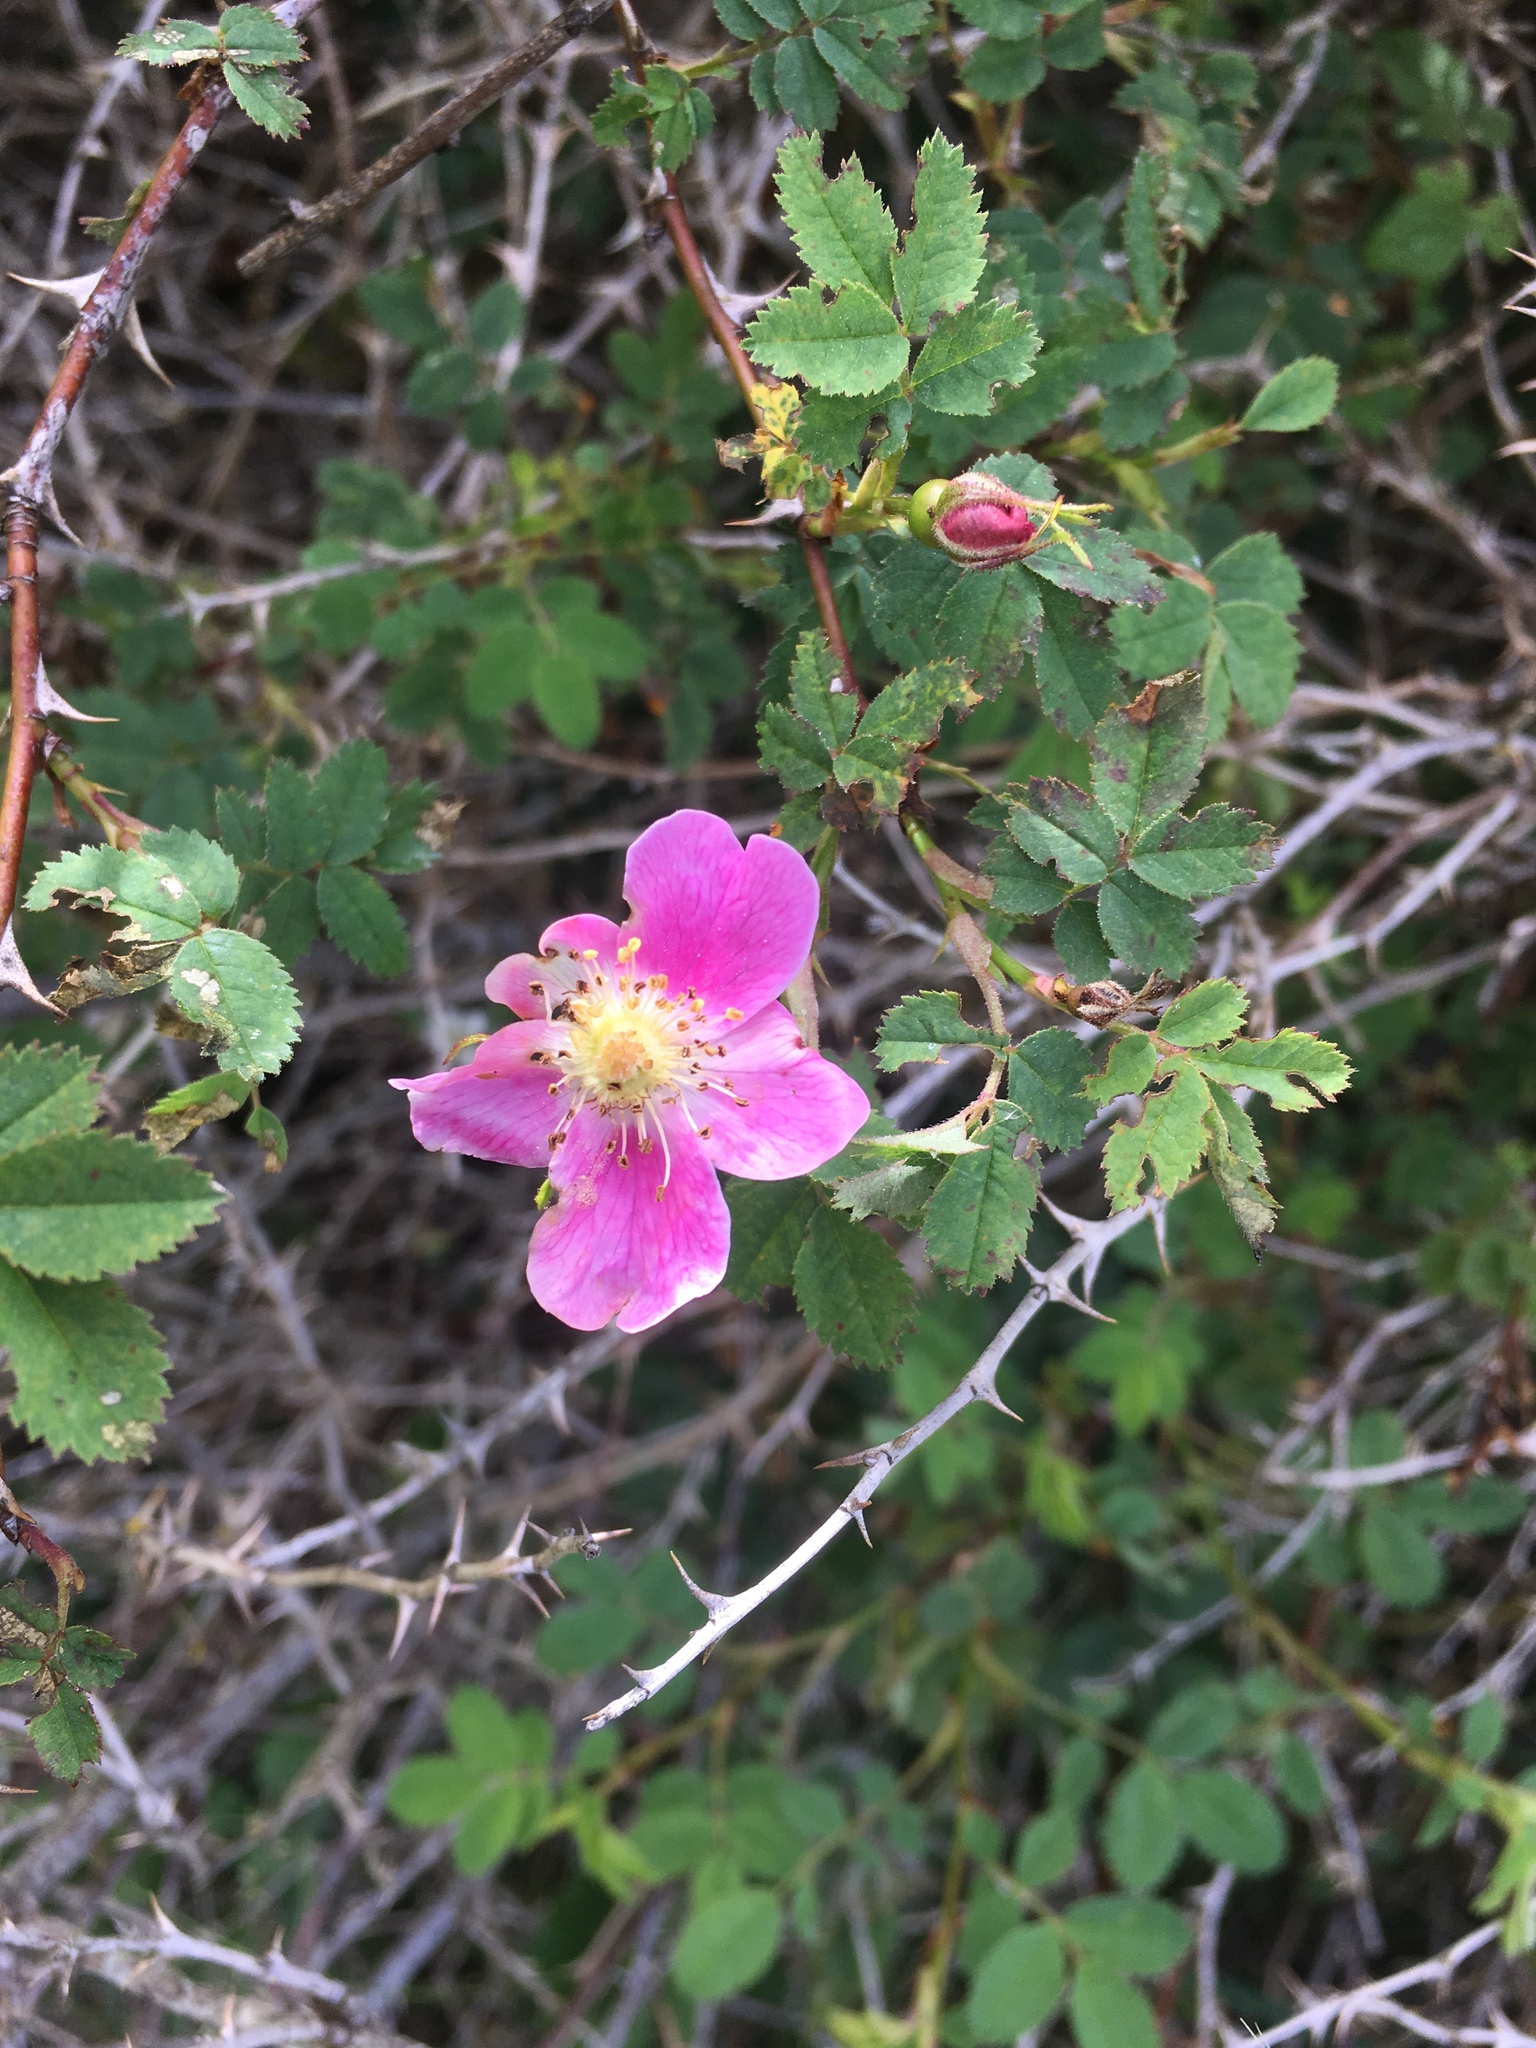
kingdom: Plantae
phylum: Tracheophyta
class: Magnoliopsida
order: Rosales
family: Rosaceae
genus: Rosa
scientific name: Rosa nutkana
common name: Nootka rose
